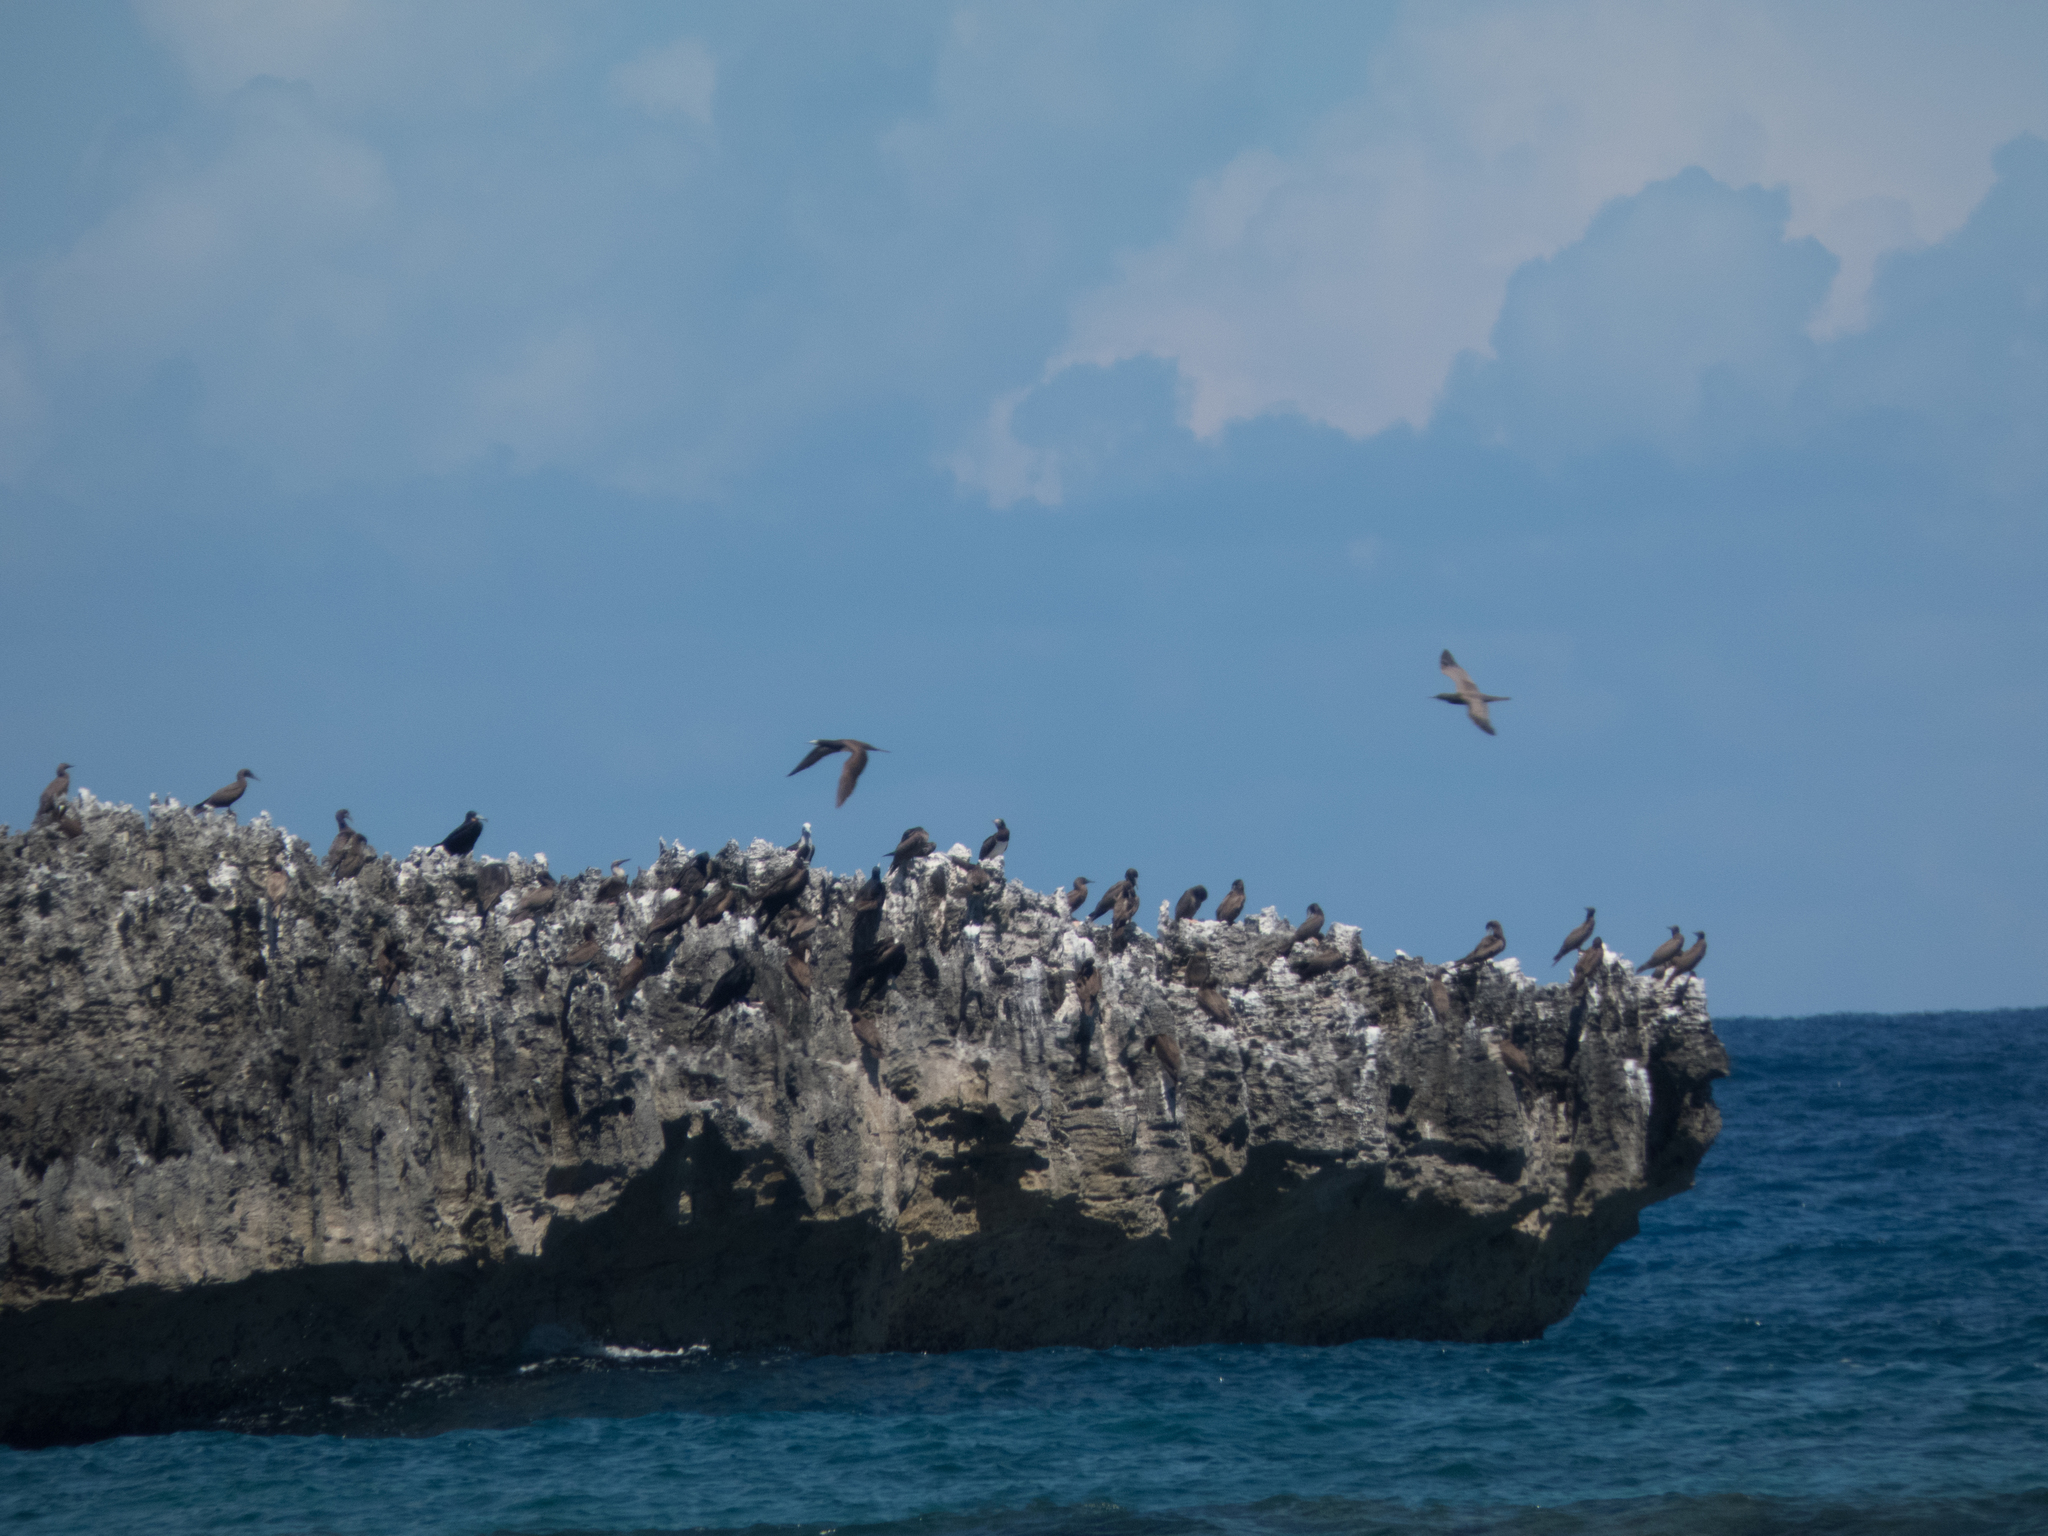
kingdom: Animalia
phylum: Chordata
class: Aves
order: Suliformes
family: Sulidae
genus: Sula
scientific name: Sula leucogaster
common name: Brown booby
